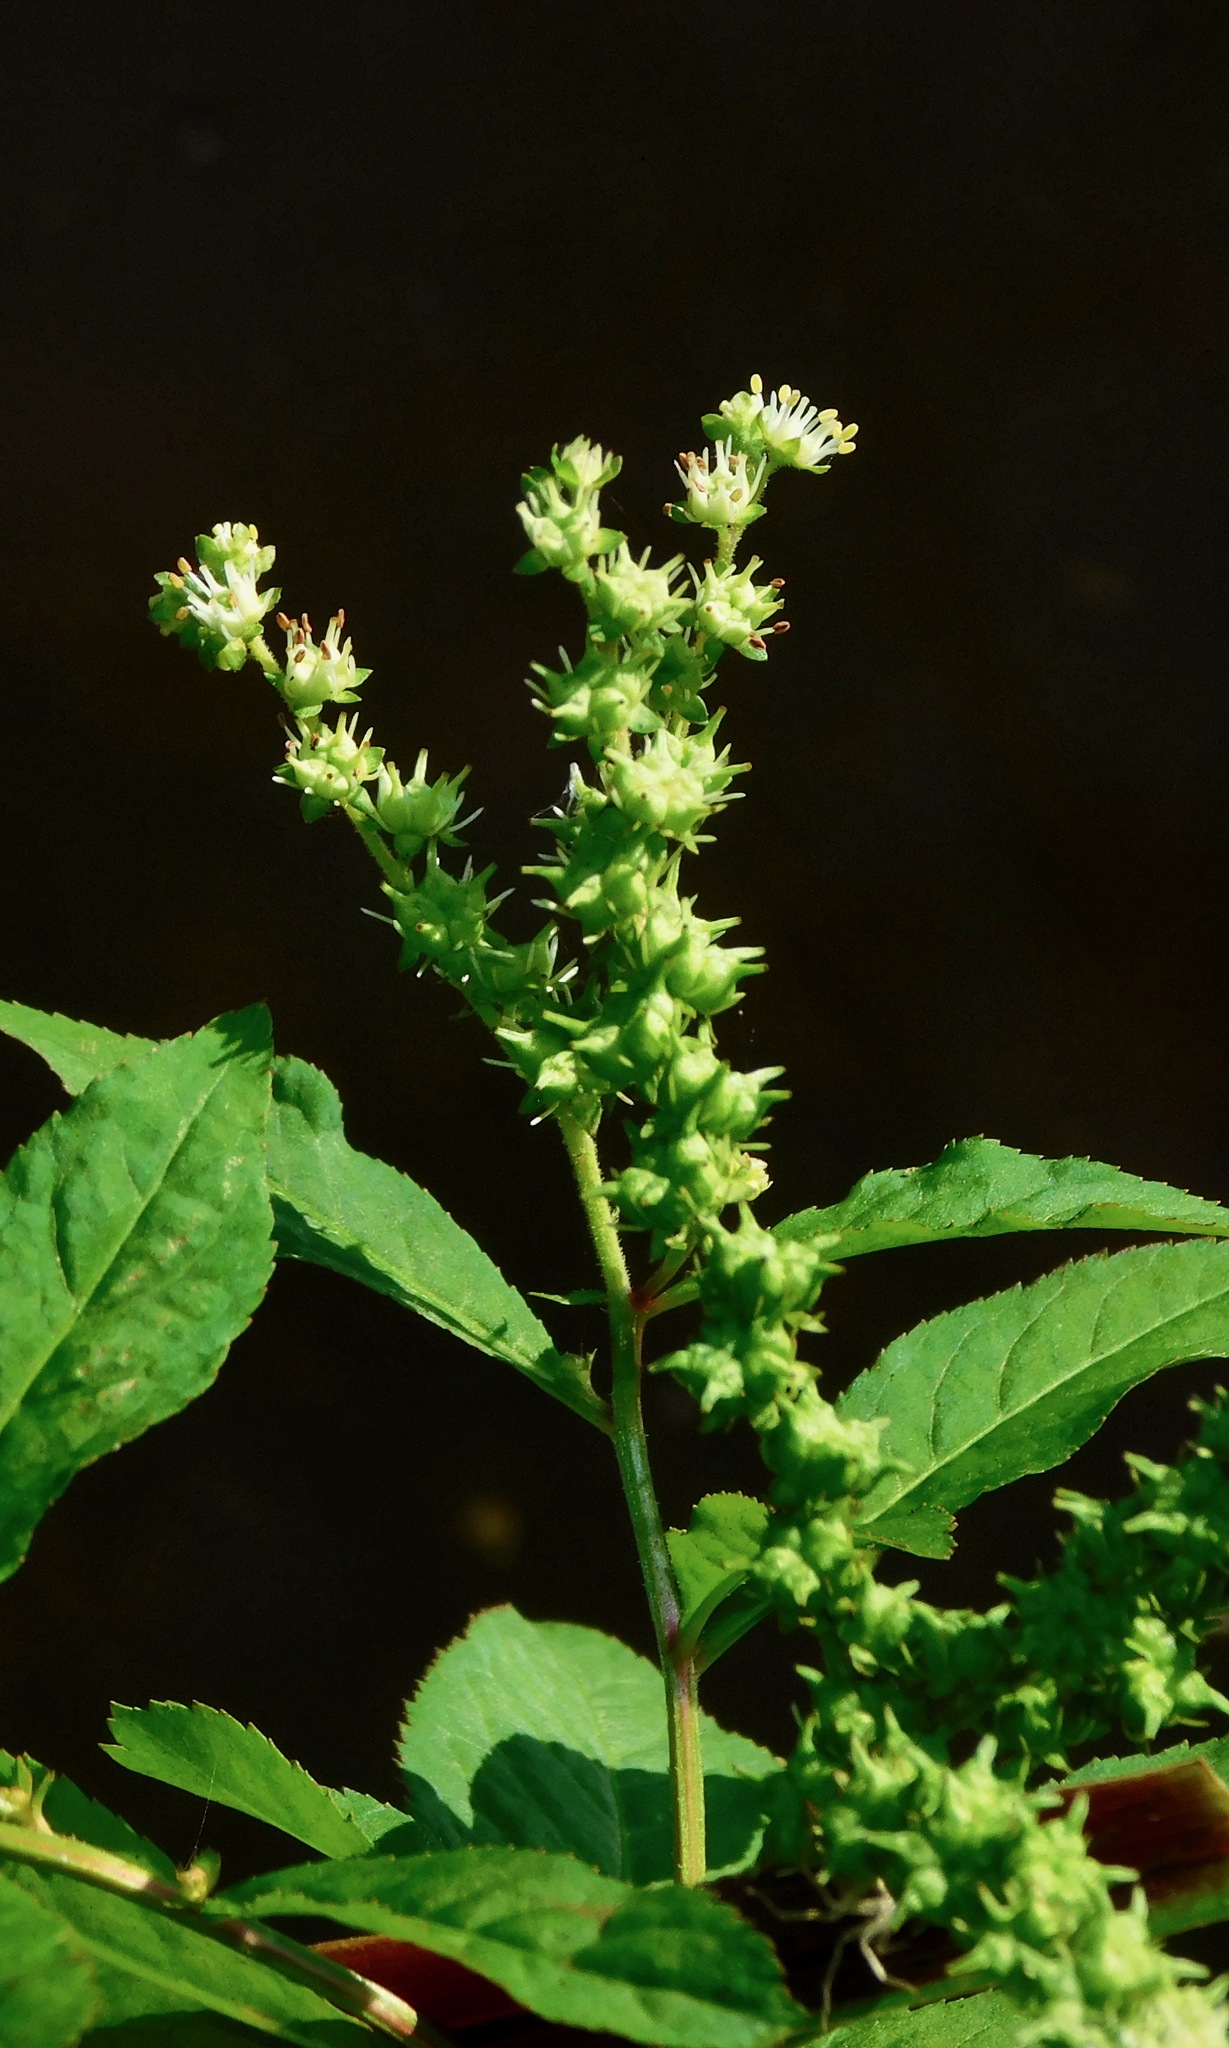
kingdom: Plantae
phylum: Tracheophyta
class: Magnoliopsida
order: Saxifragales
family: Penthoraceae
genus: Penthorum
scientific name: Penthorum sedoides
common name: Ditch stonecrop
